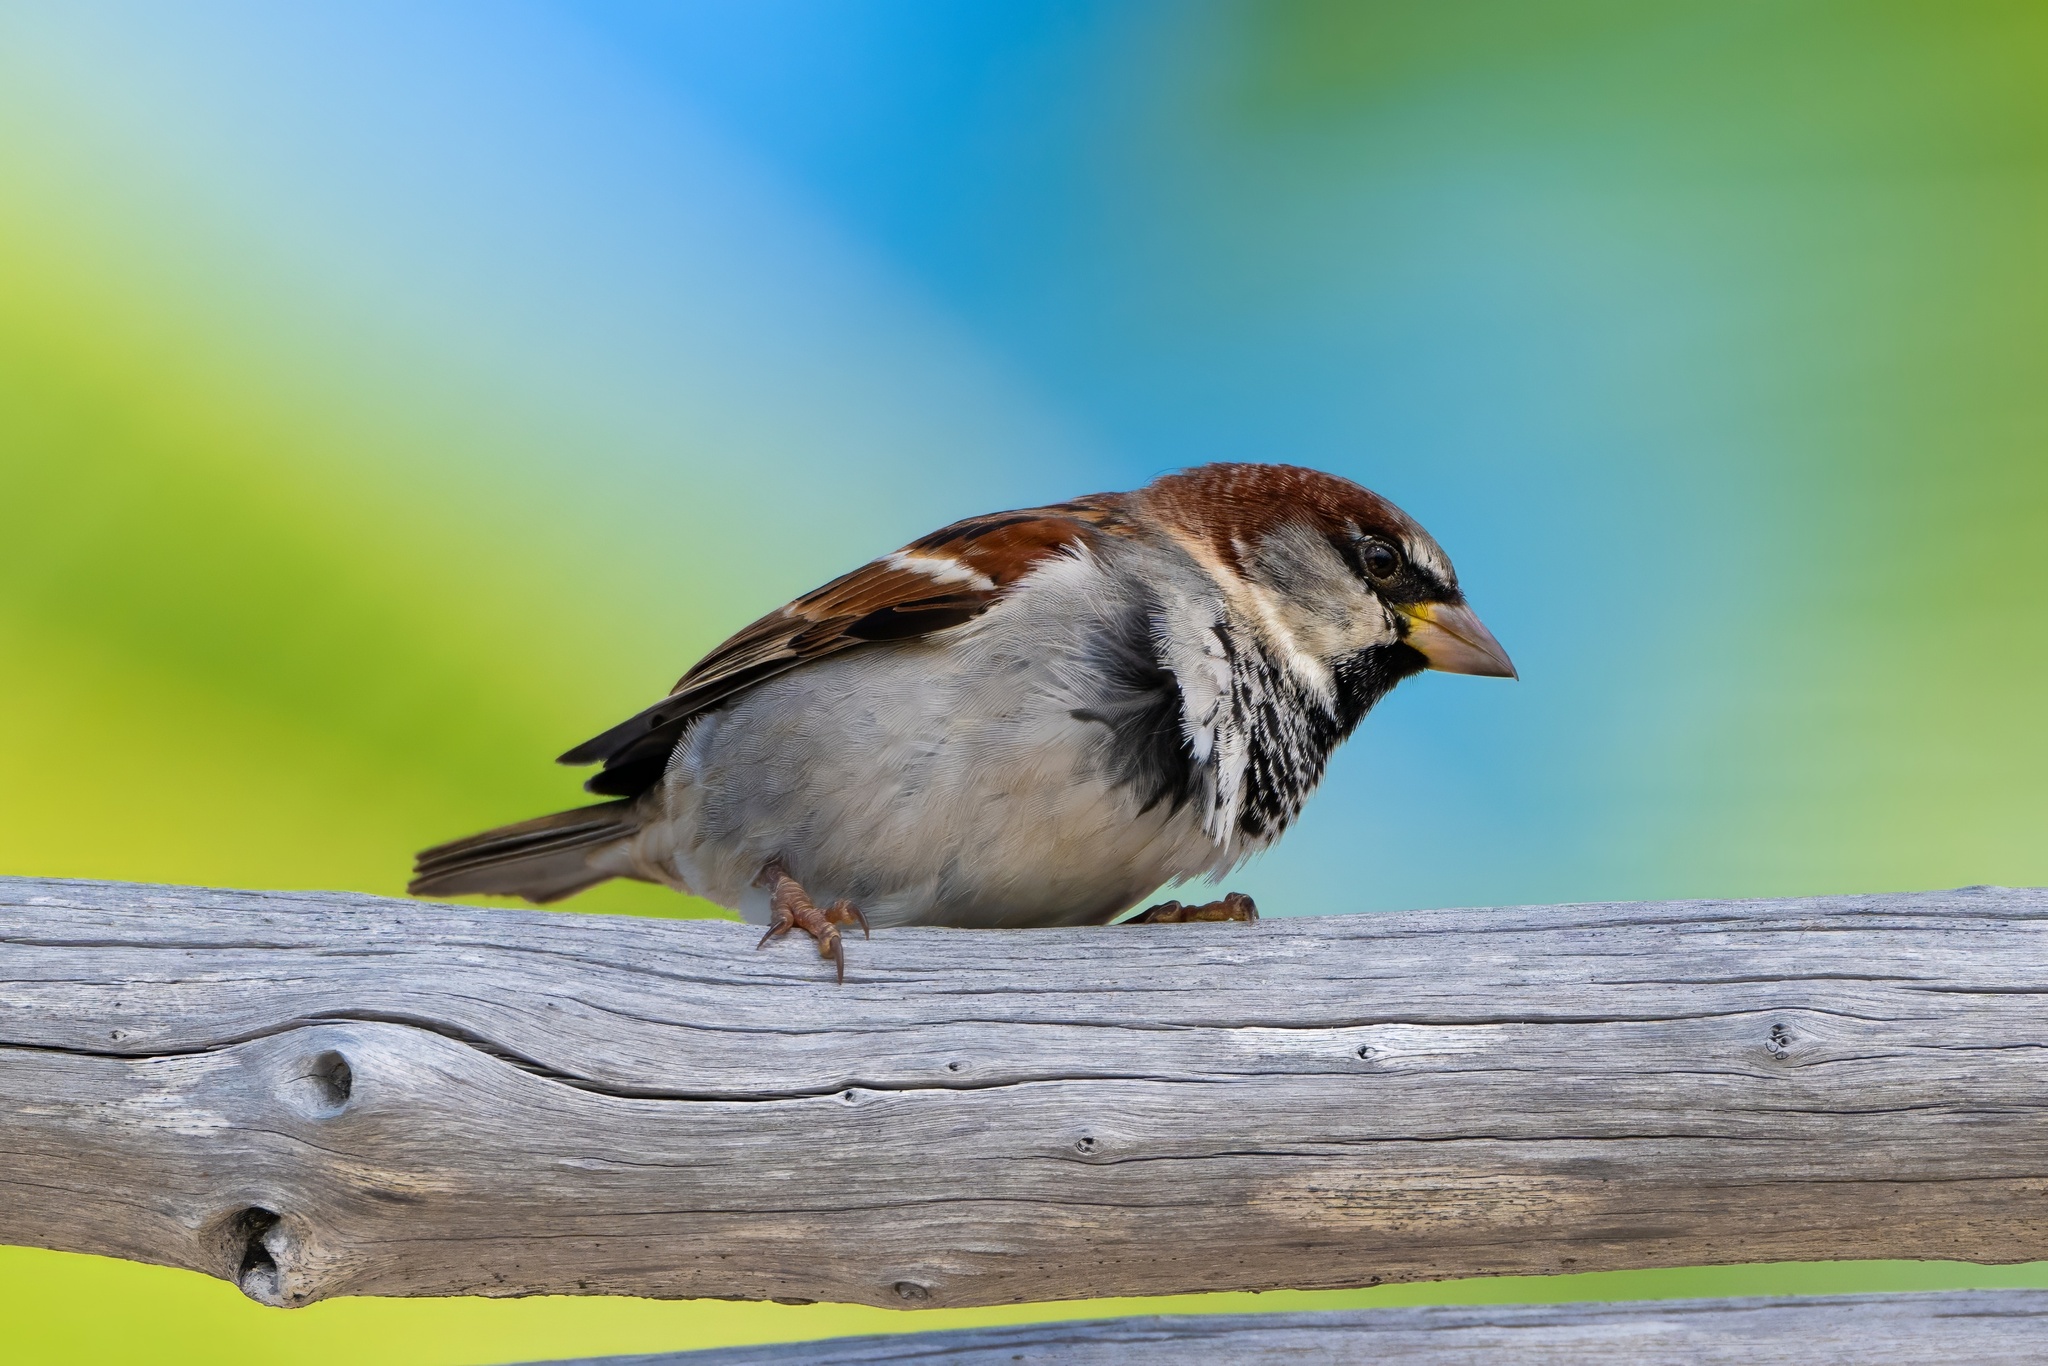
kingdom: Animalia
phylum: Chordata
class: Aves
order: Passeriformes
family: Passeridae
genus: Passer
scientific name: Passer domesticus
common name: House sparrow
